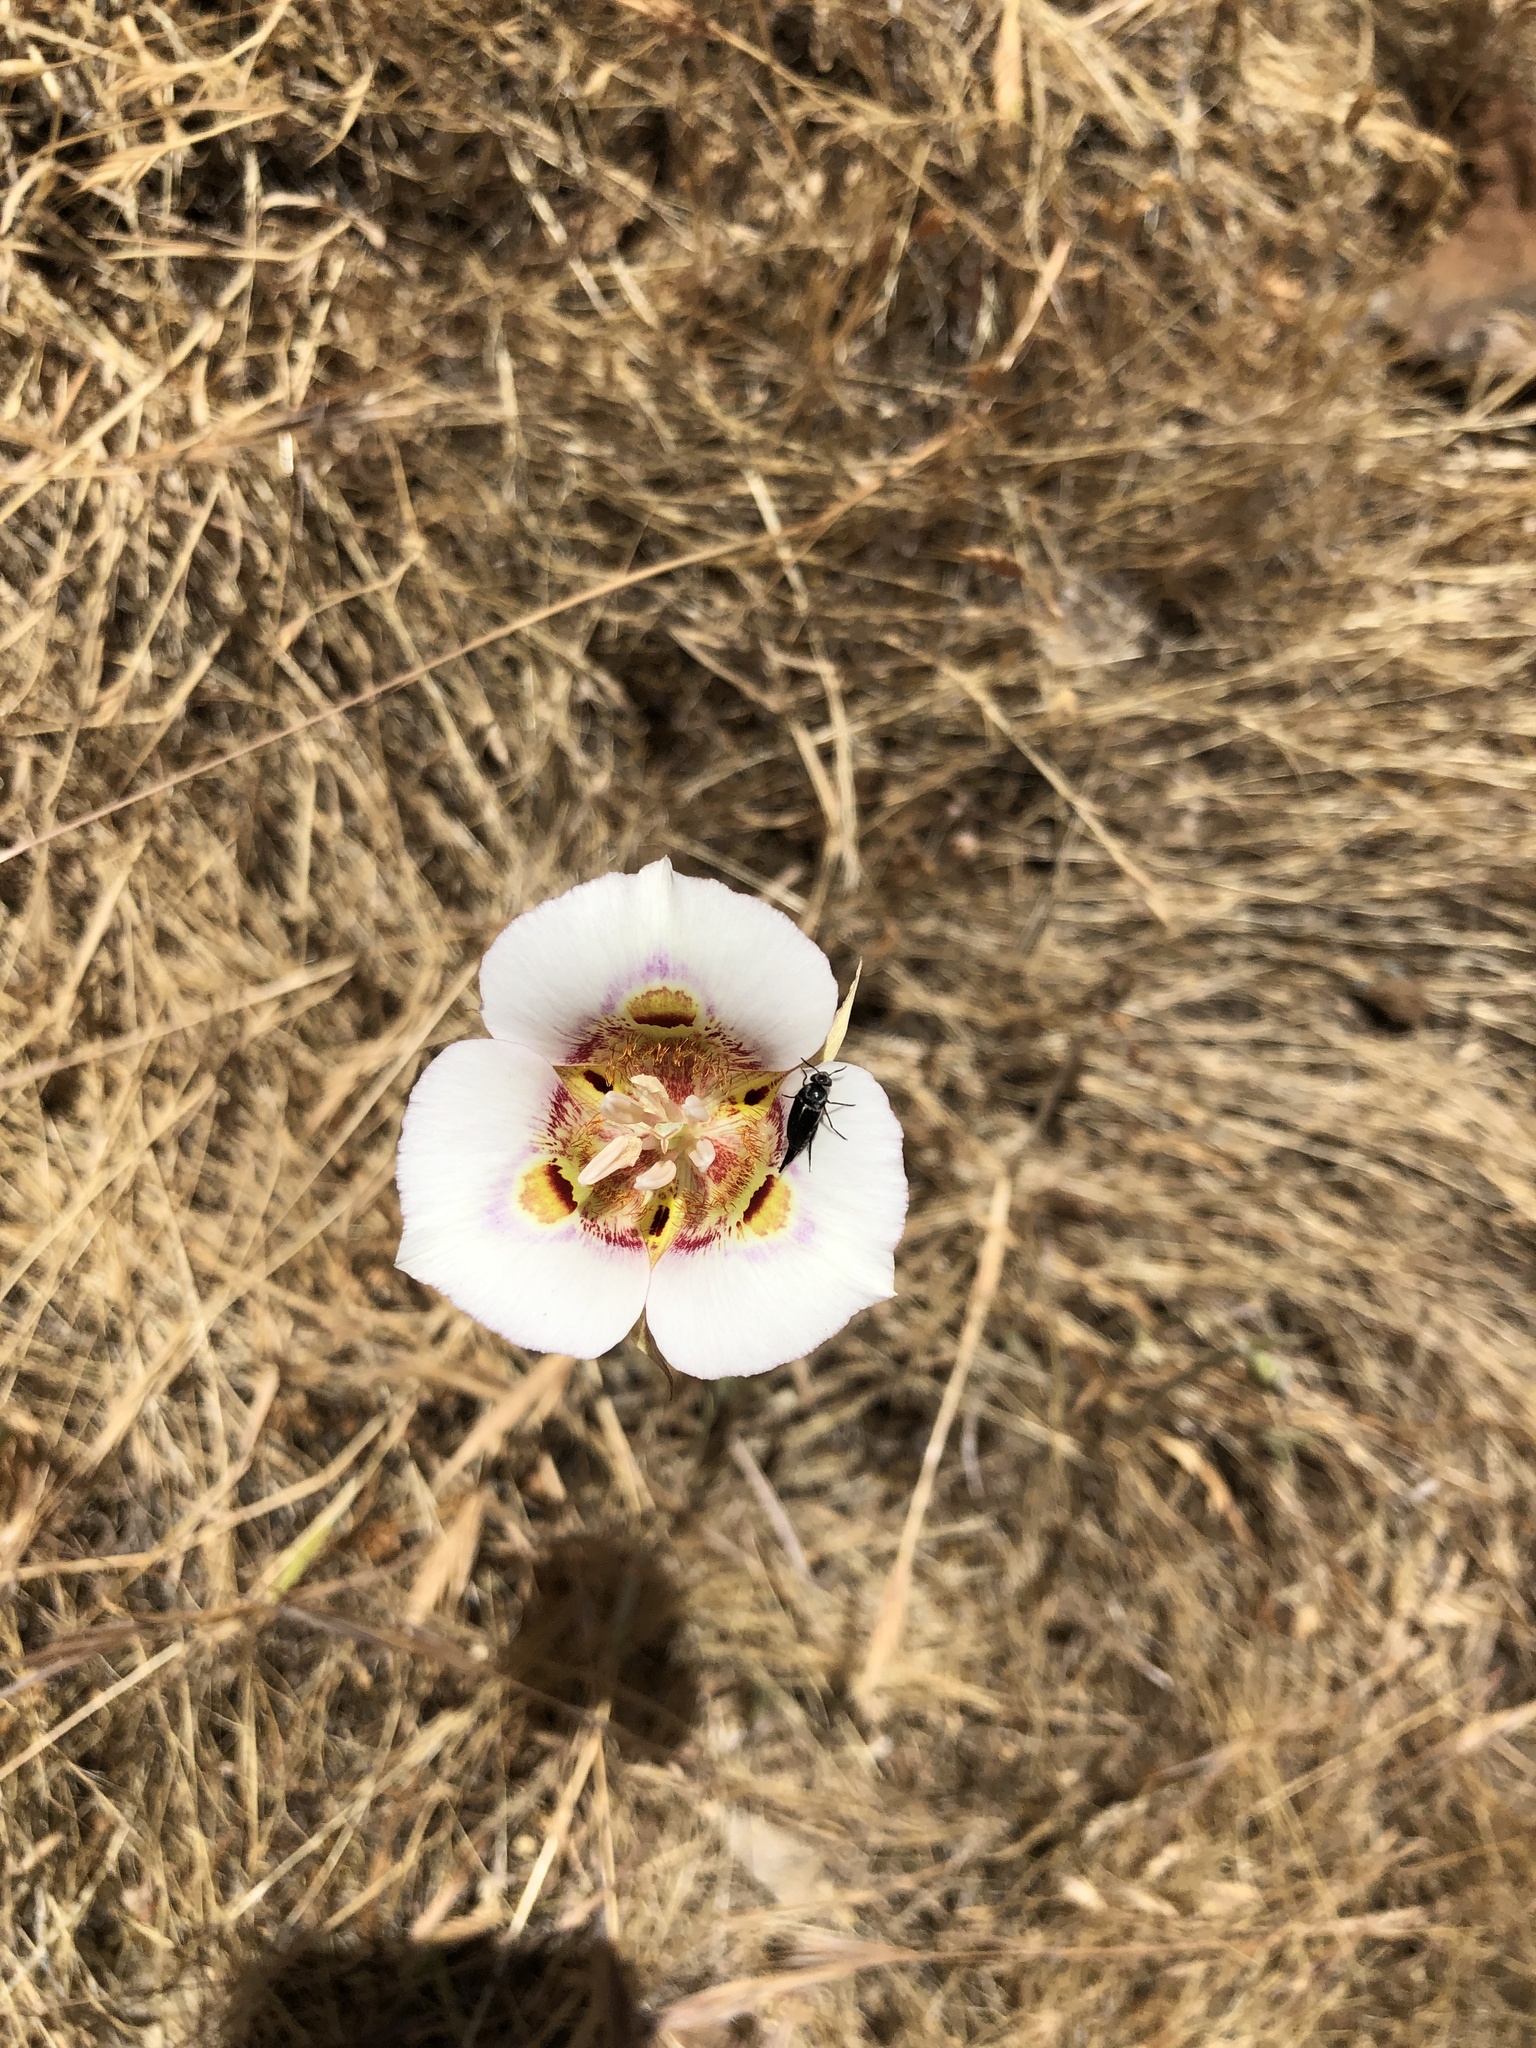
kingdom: Plantae
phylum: Tracheophyta
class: Liliopsida
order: Liliales
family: Liliaceae
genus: Calochortus
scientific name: Calochortus argillosus
